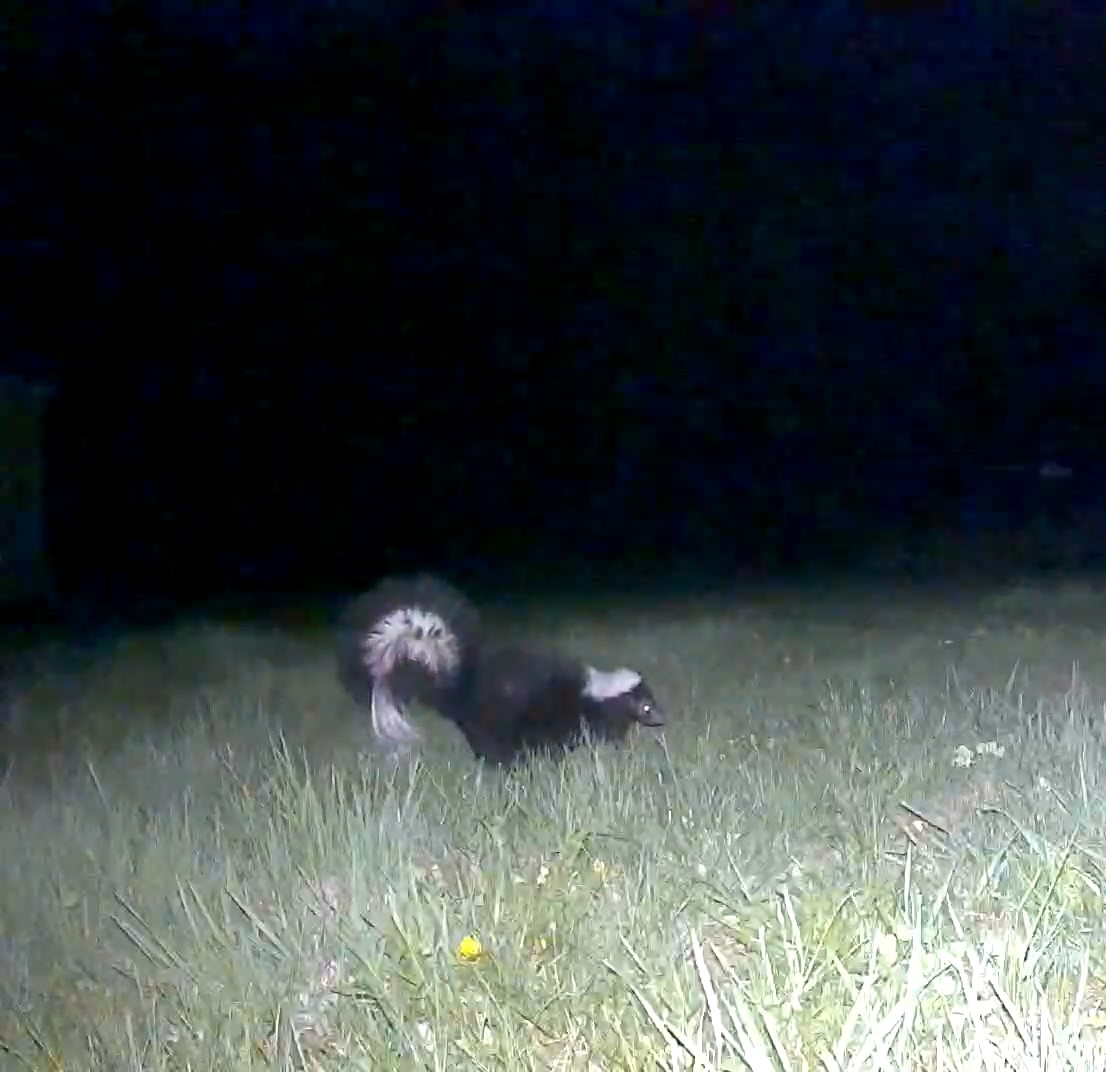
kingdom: Animalia
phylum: Chordata
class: Mammalia
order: Carnivora
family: Mephitidae
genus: Mephitis
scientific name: Mephitis mephitis
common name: Striped skunk
